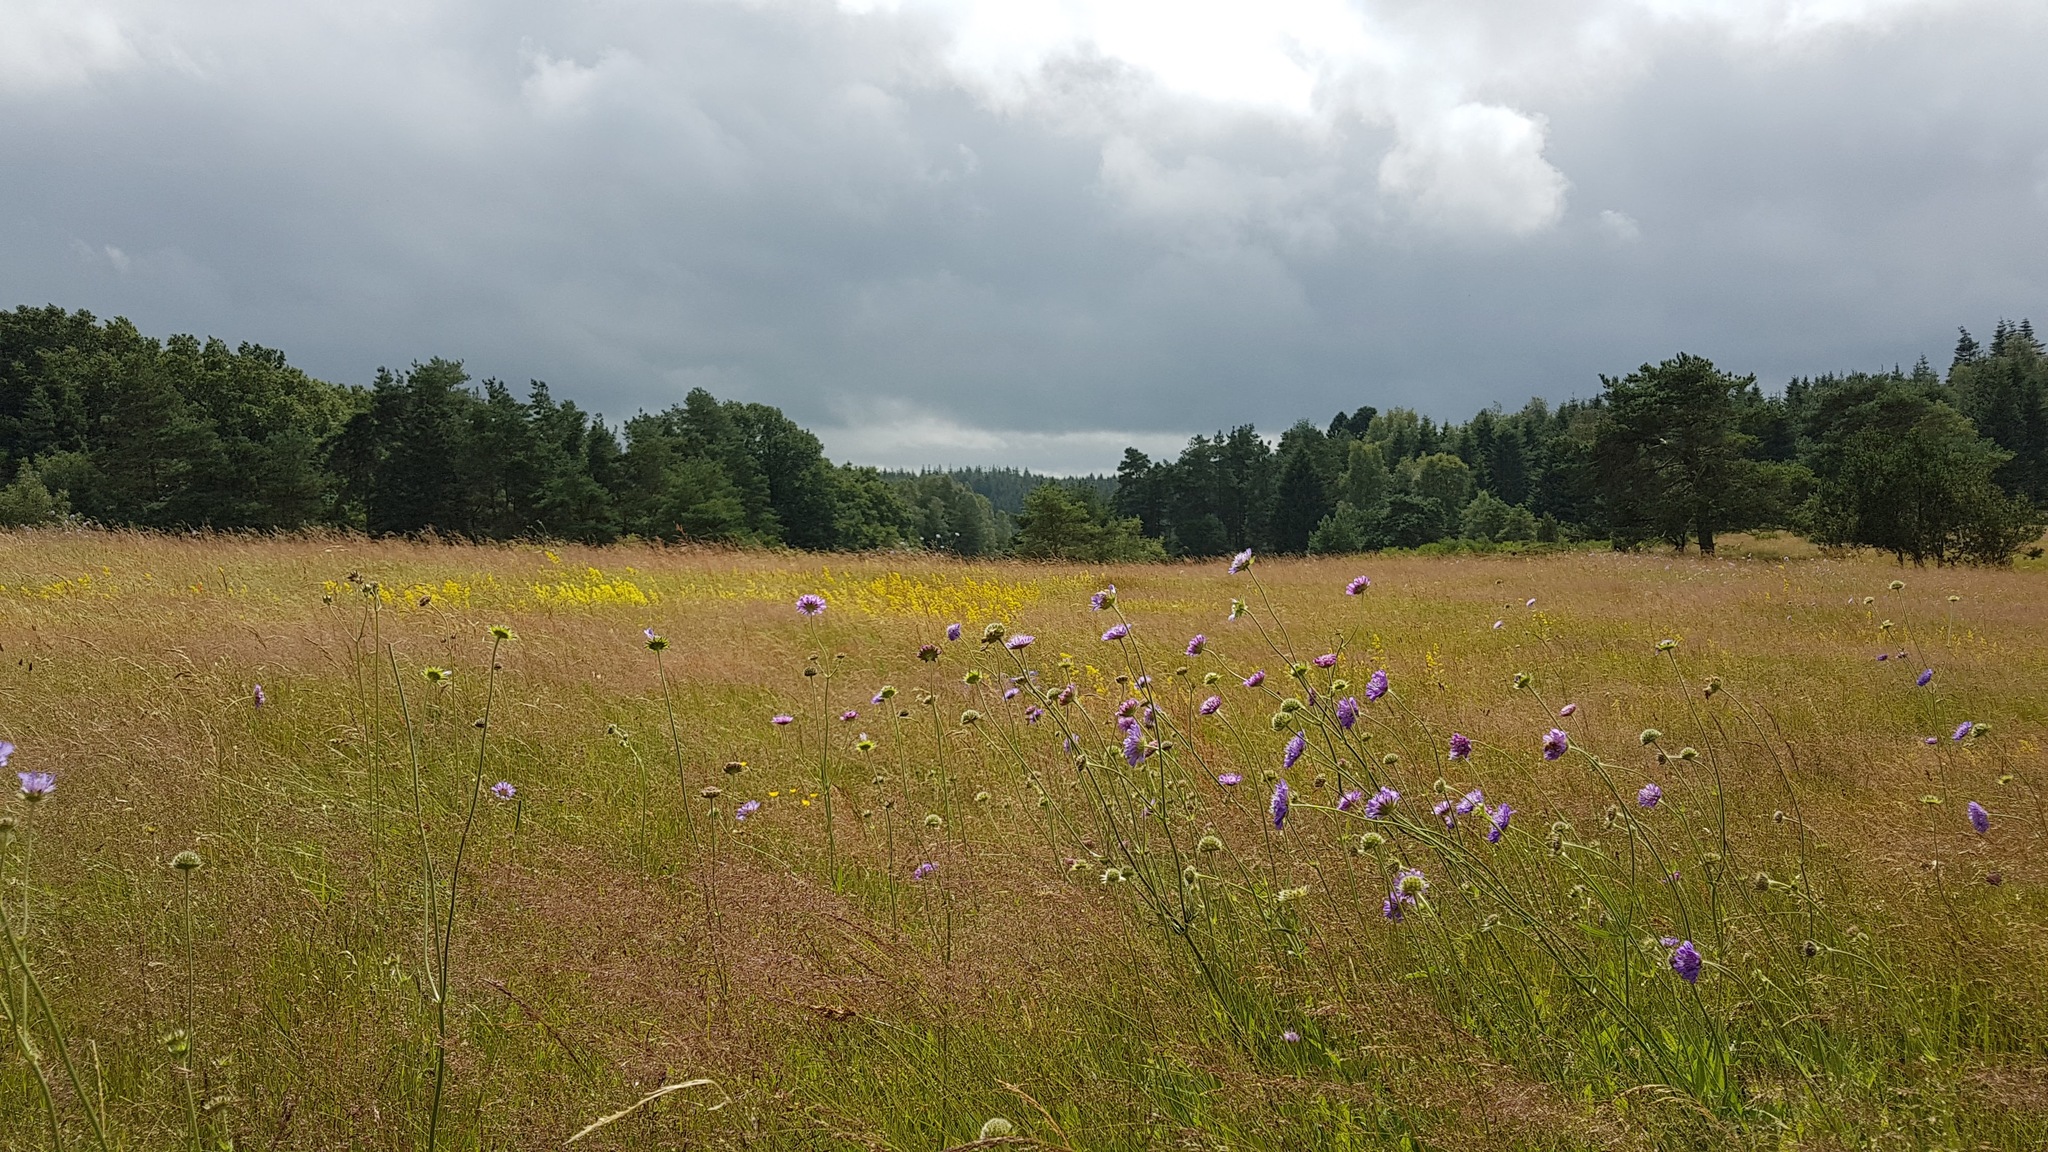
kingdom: Plantae
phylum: Tracheophyta
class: Magnoliopsida
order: Dipsacales
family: Caprifoliaceae
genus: Knautia
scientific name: Knautia arvensis
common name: Field scabiosa
